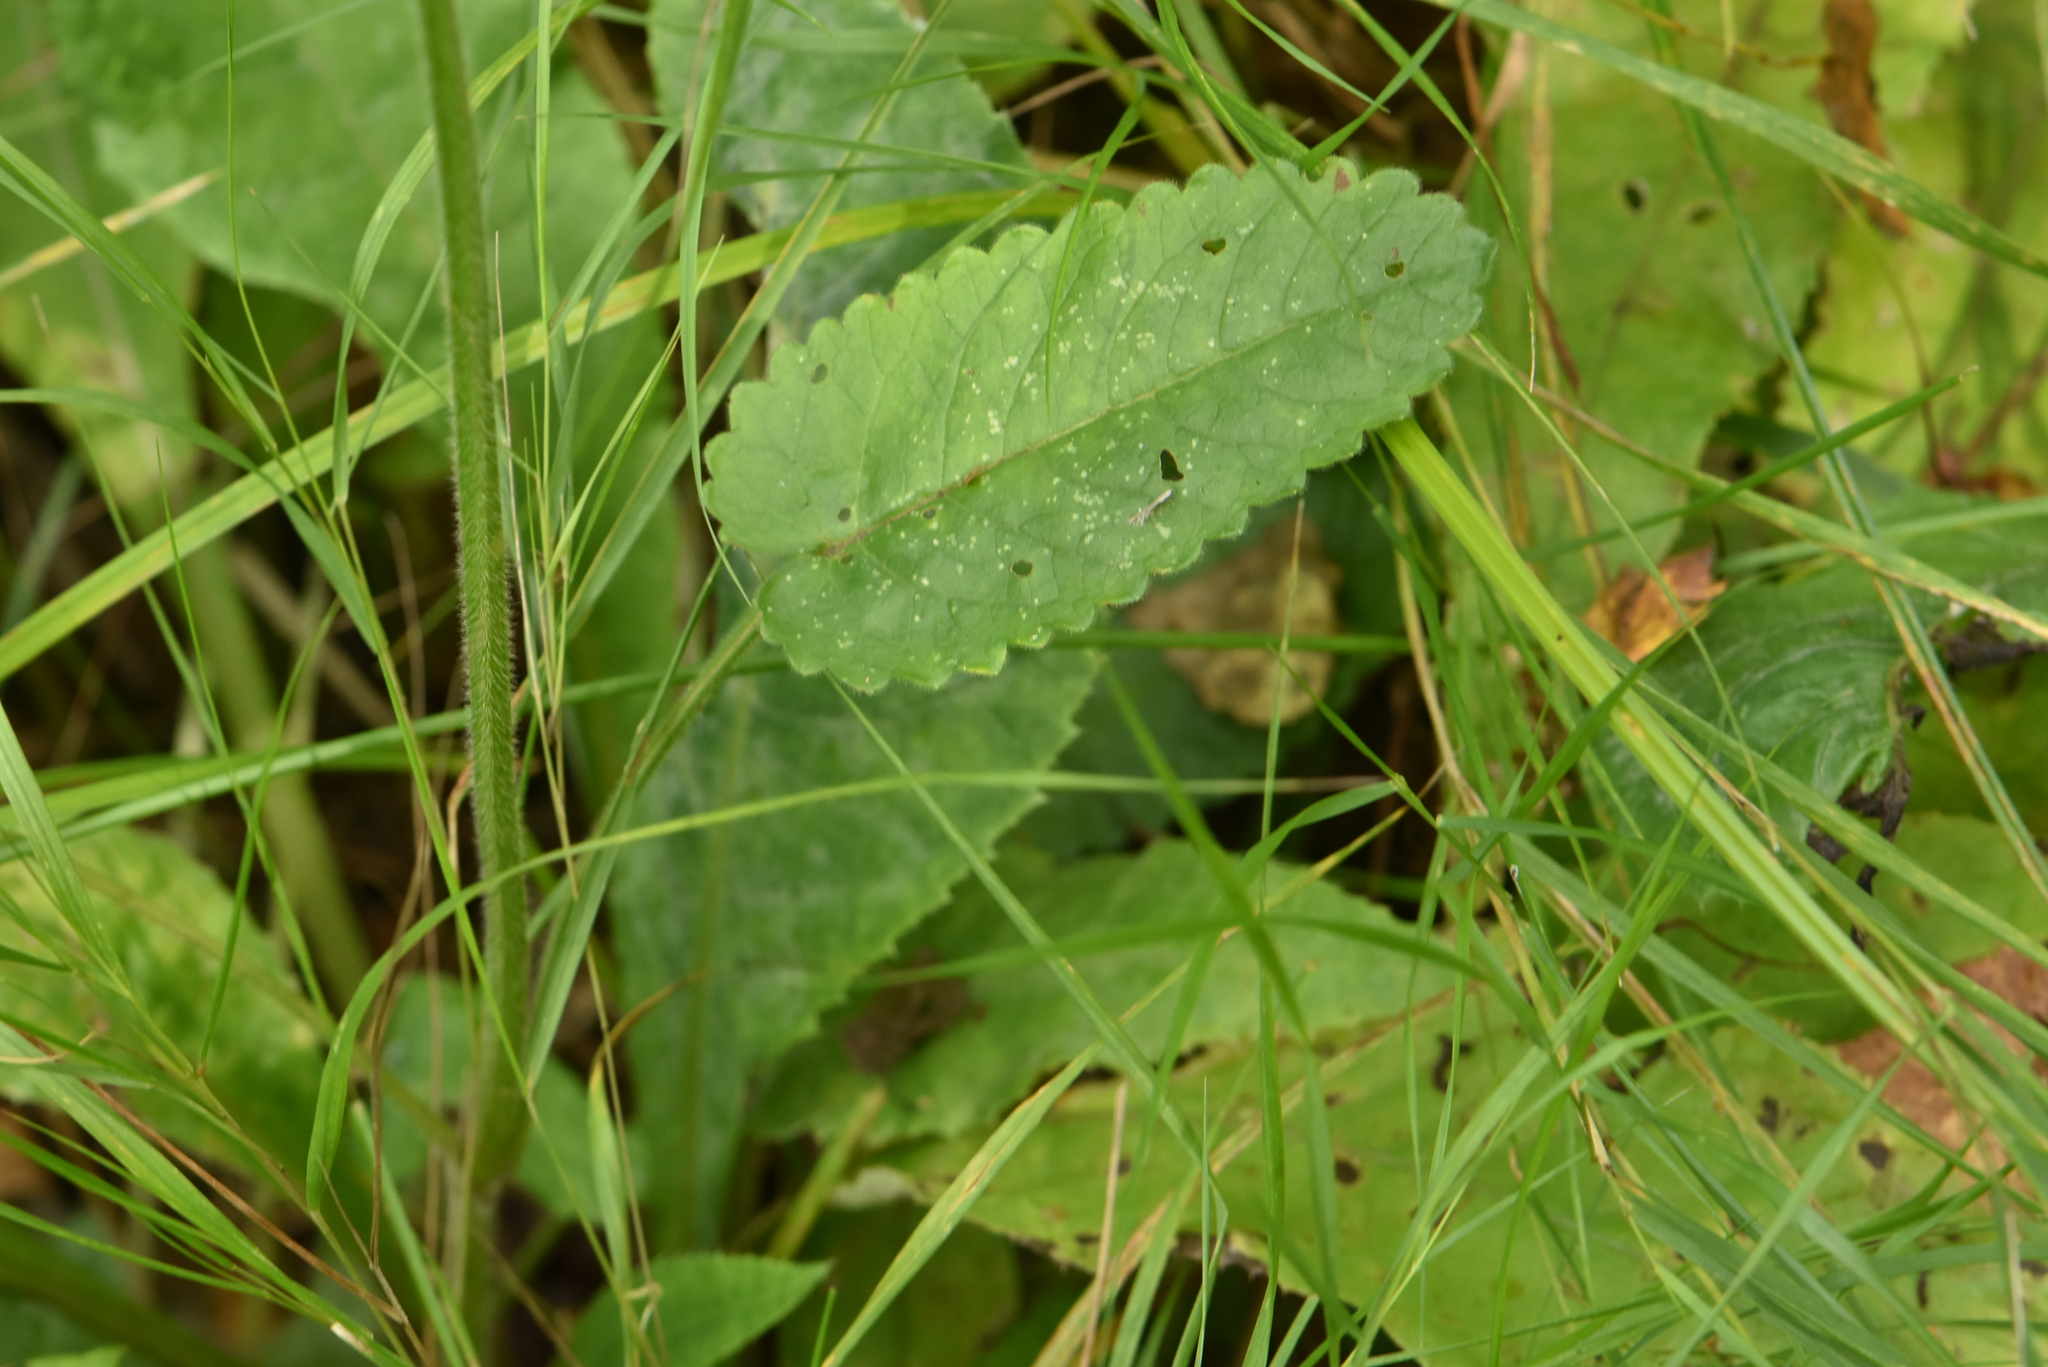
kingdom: Plantae
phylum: Tracheophyta
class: Magnoliopsida
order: Lamiales
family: Lamiaceae
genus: Betonica
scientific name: Betonica officinalis
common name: Bishop's-wort
